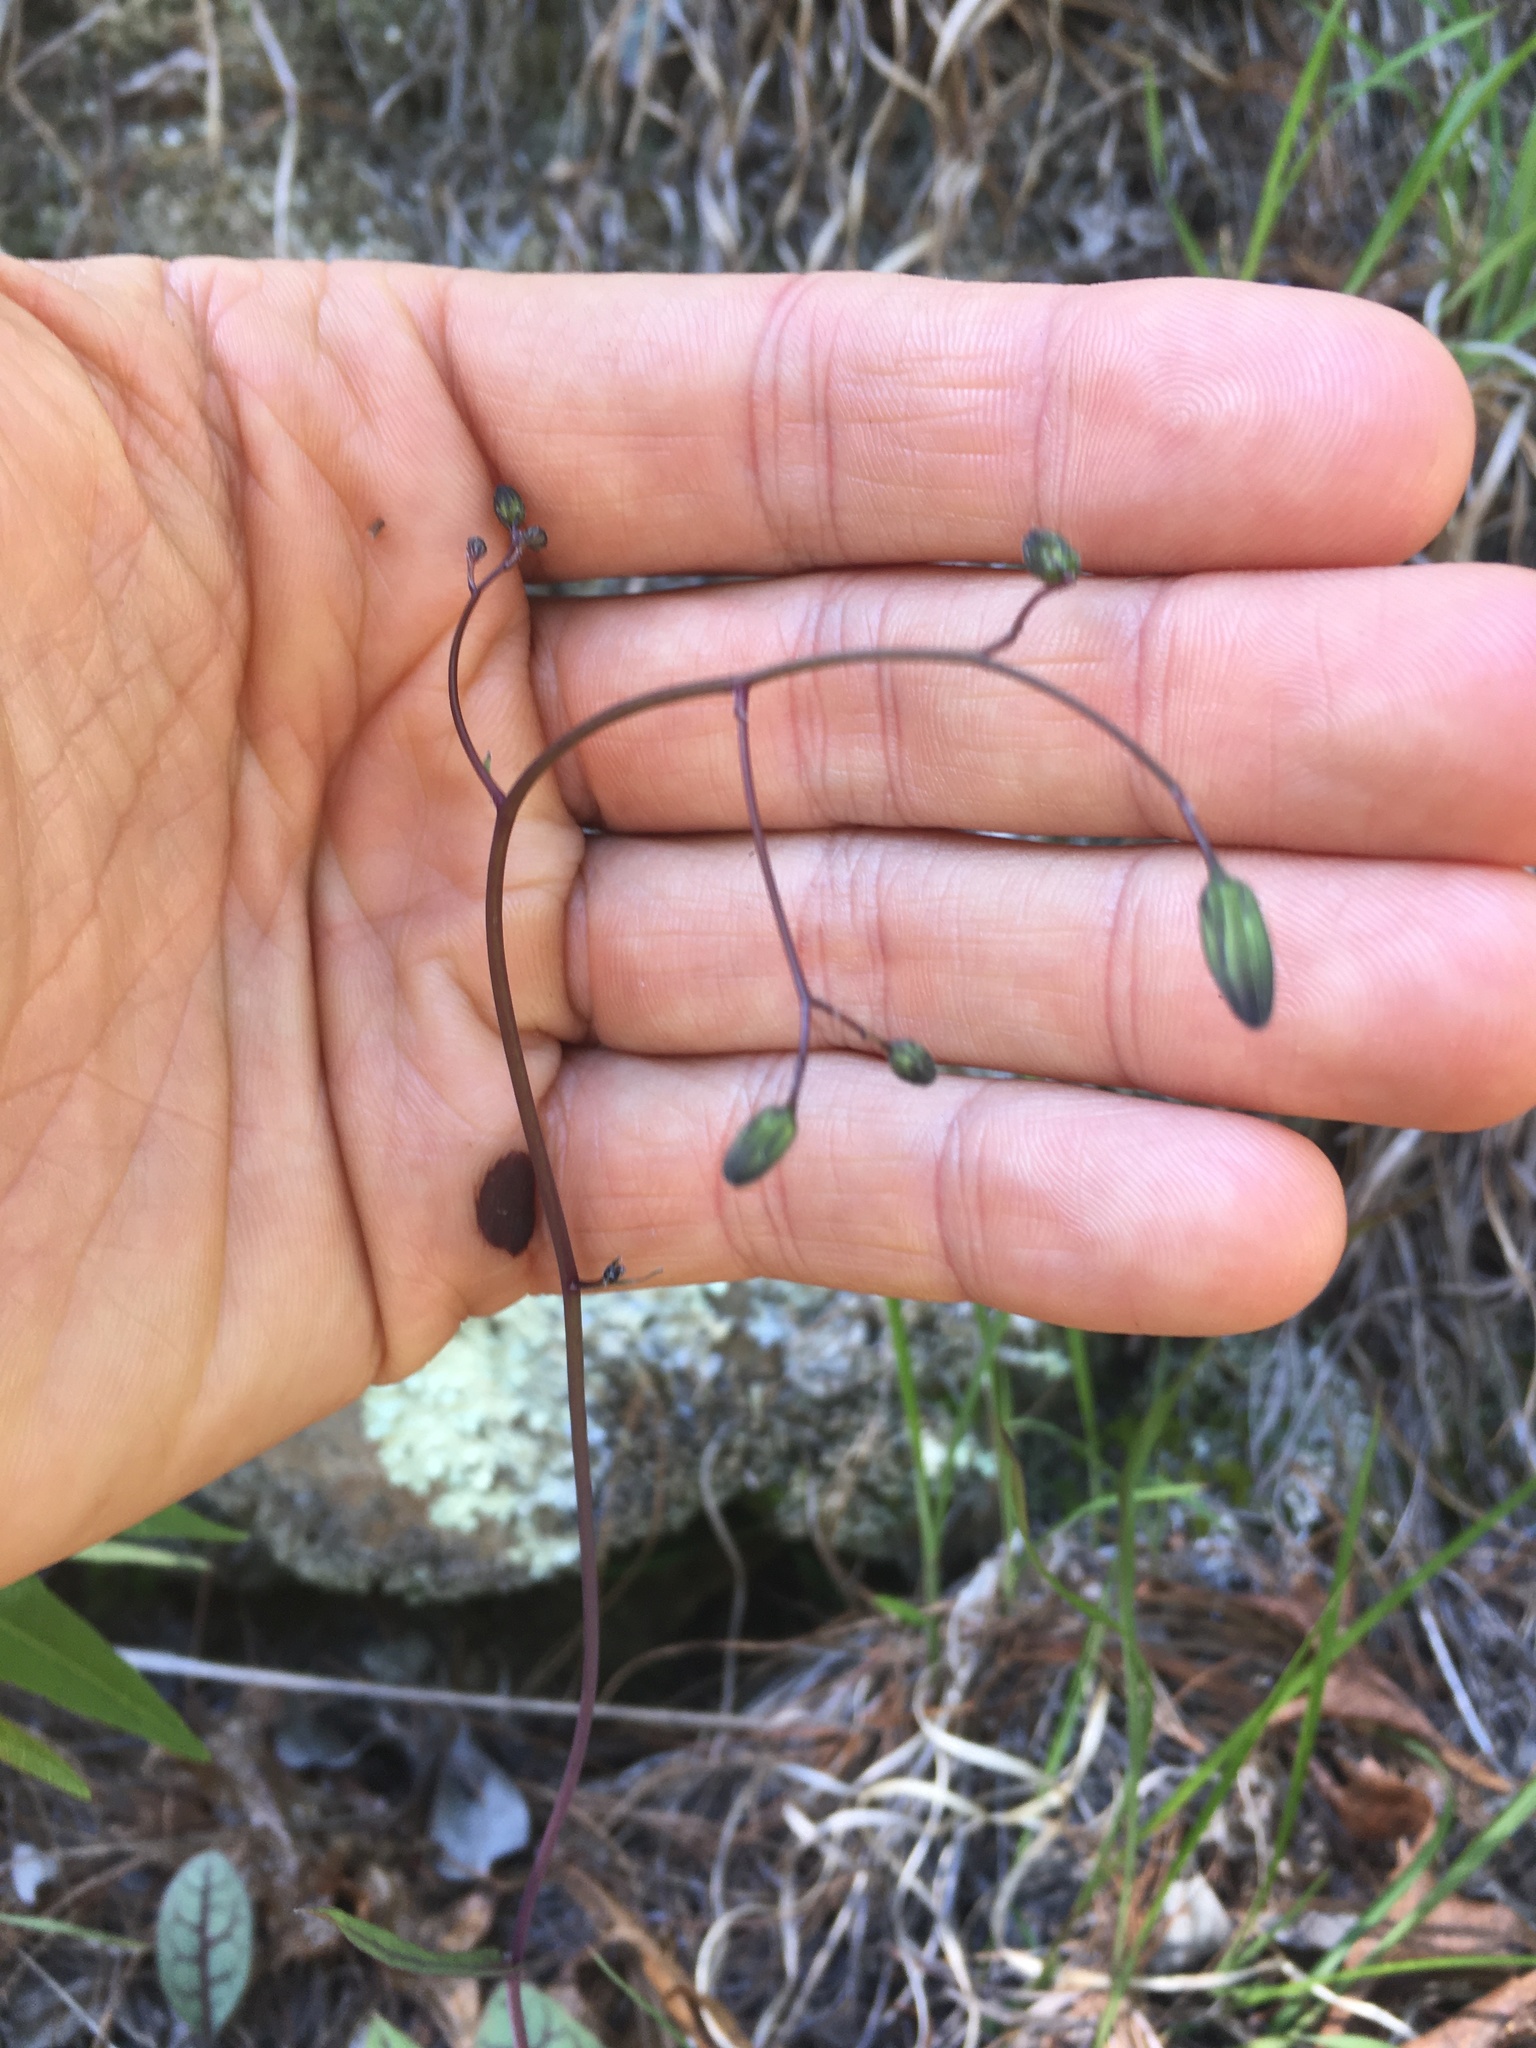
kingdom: Plantae
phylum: Tracheophyta
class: Magnoliopsida
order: Asterales
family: Asteraceae
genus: Hieracium
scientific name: Hieracium venosum
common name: Rattlesnake hawkweed
